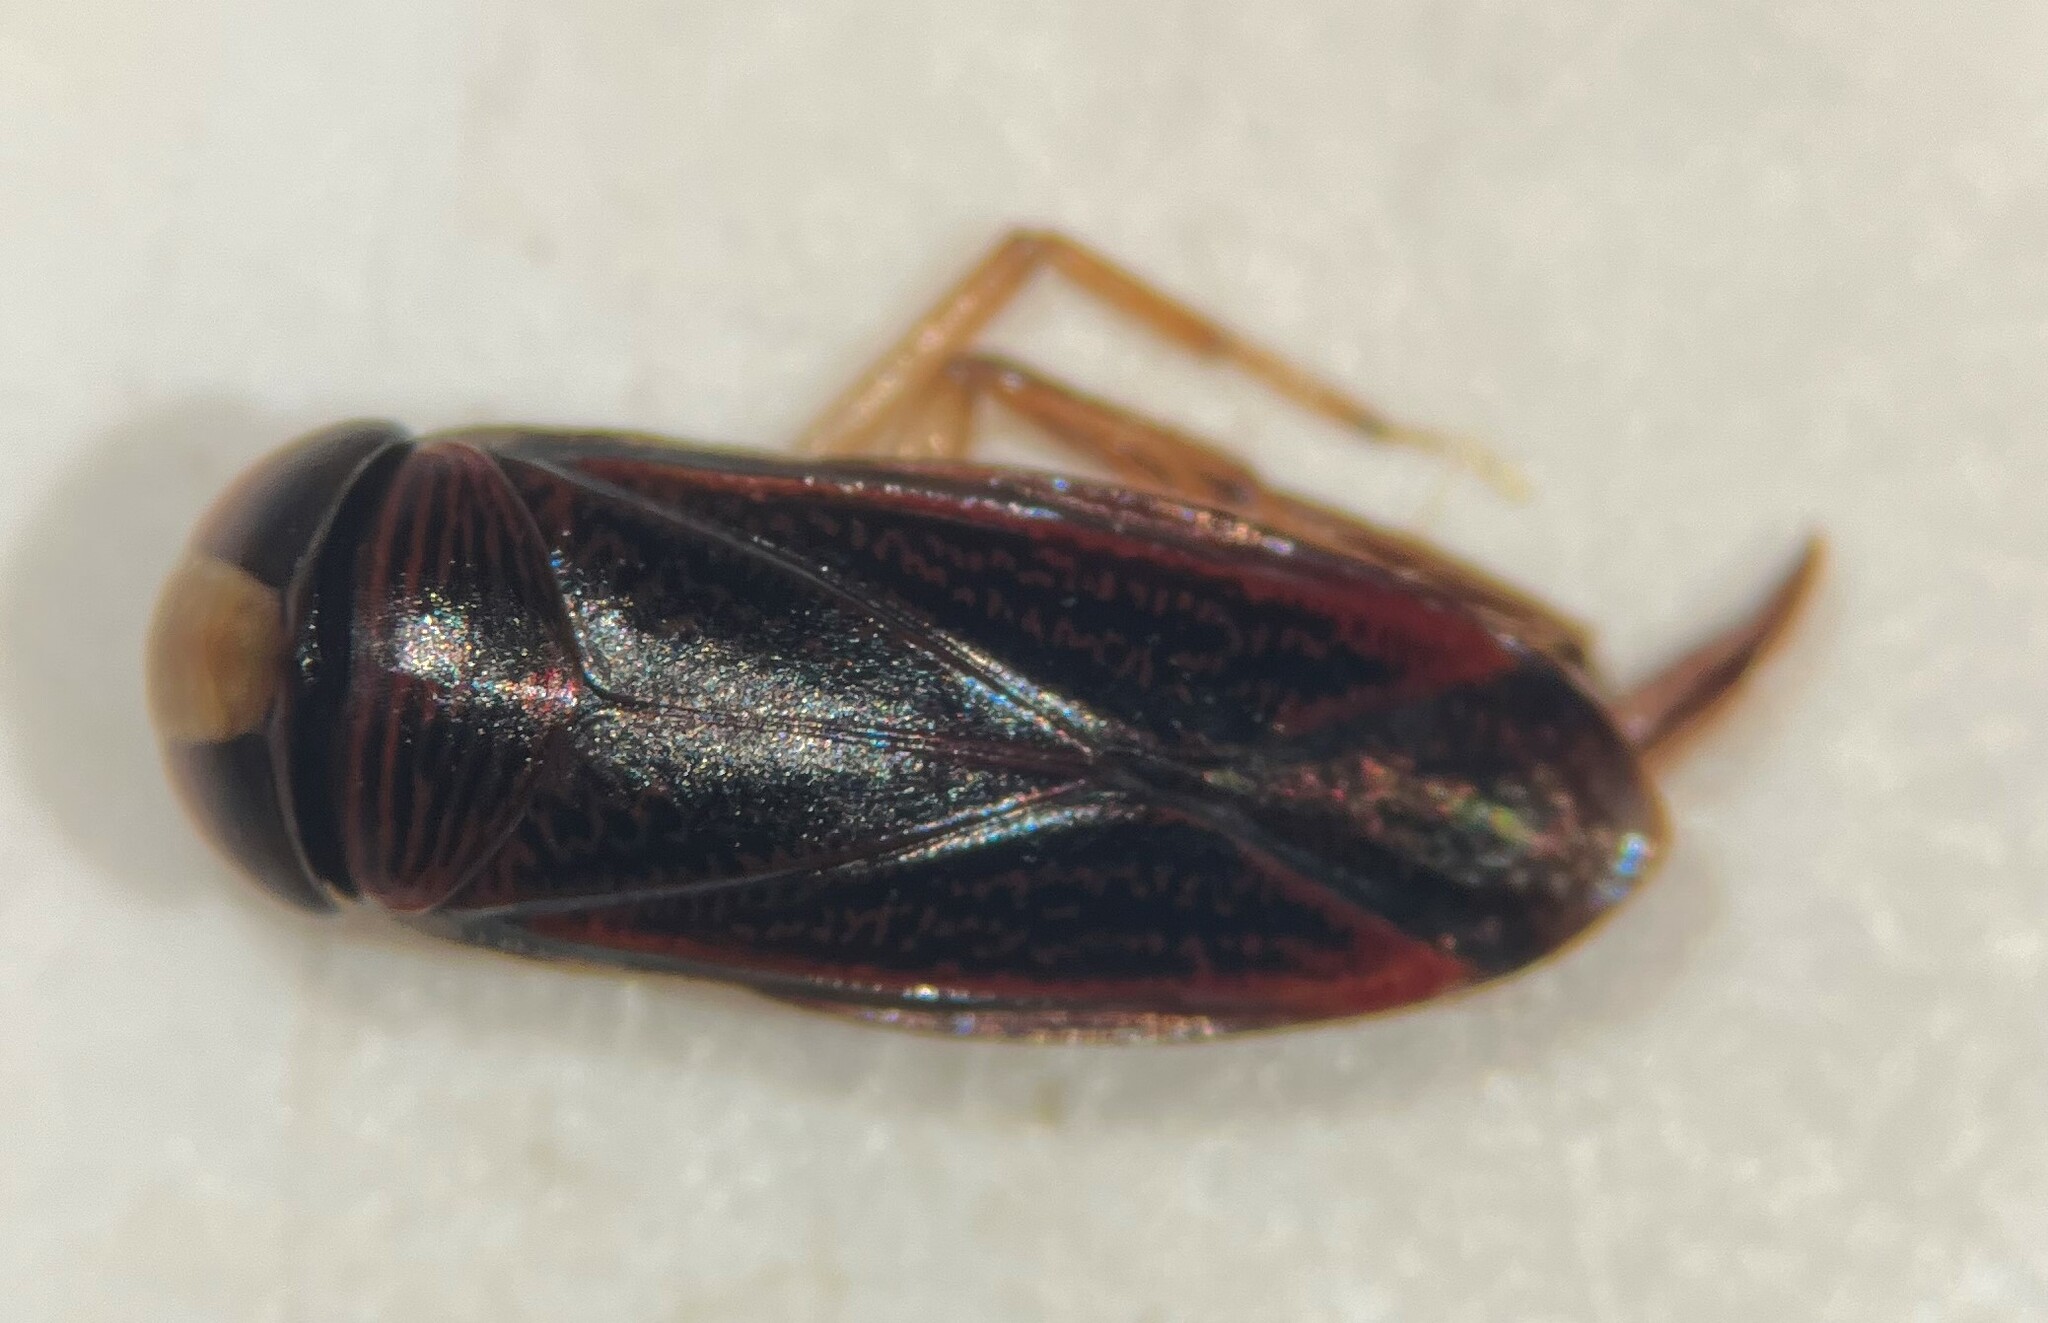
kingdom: Animalia
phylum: Arthropoda
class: Insecta
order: Hemiptera
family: Corixidae
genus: Hesperocorixa
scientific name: Hesperocorixa semilucida
